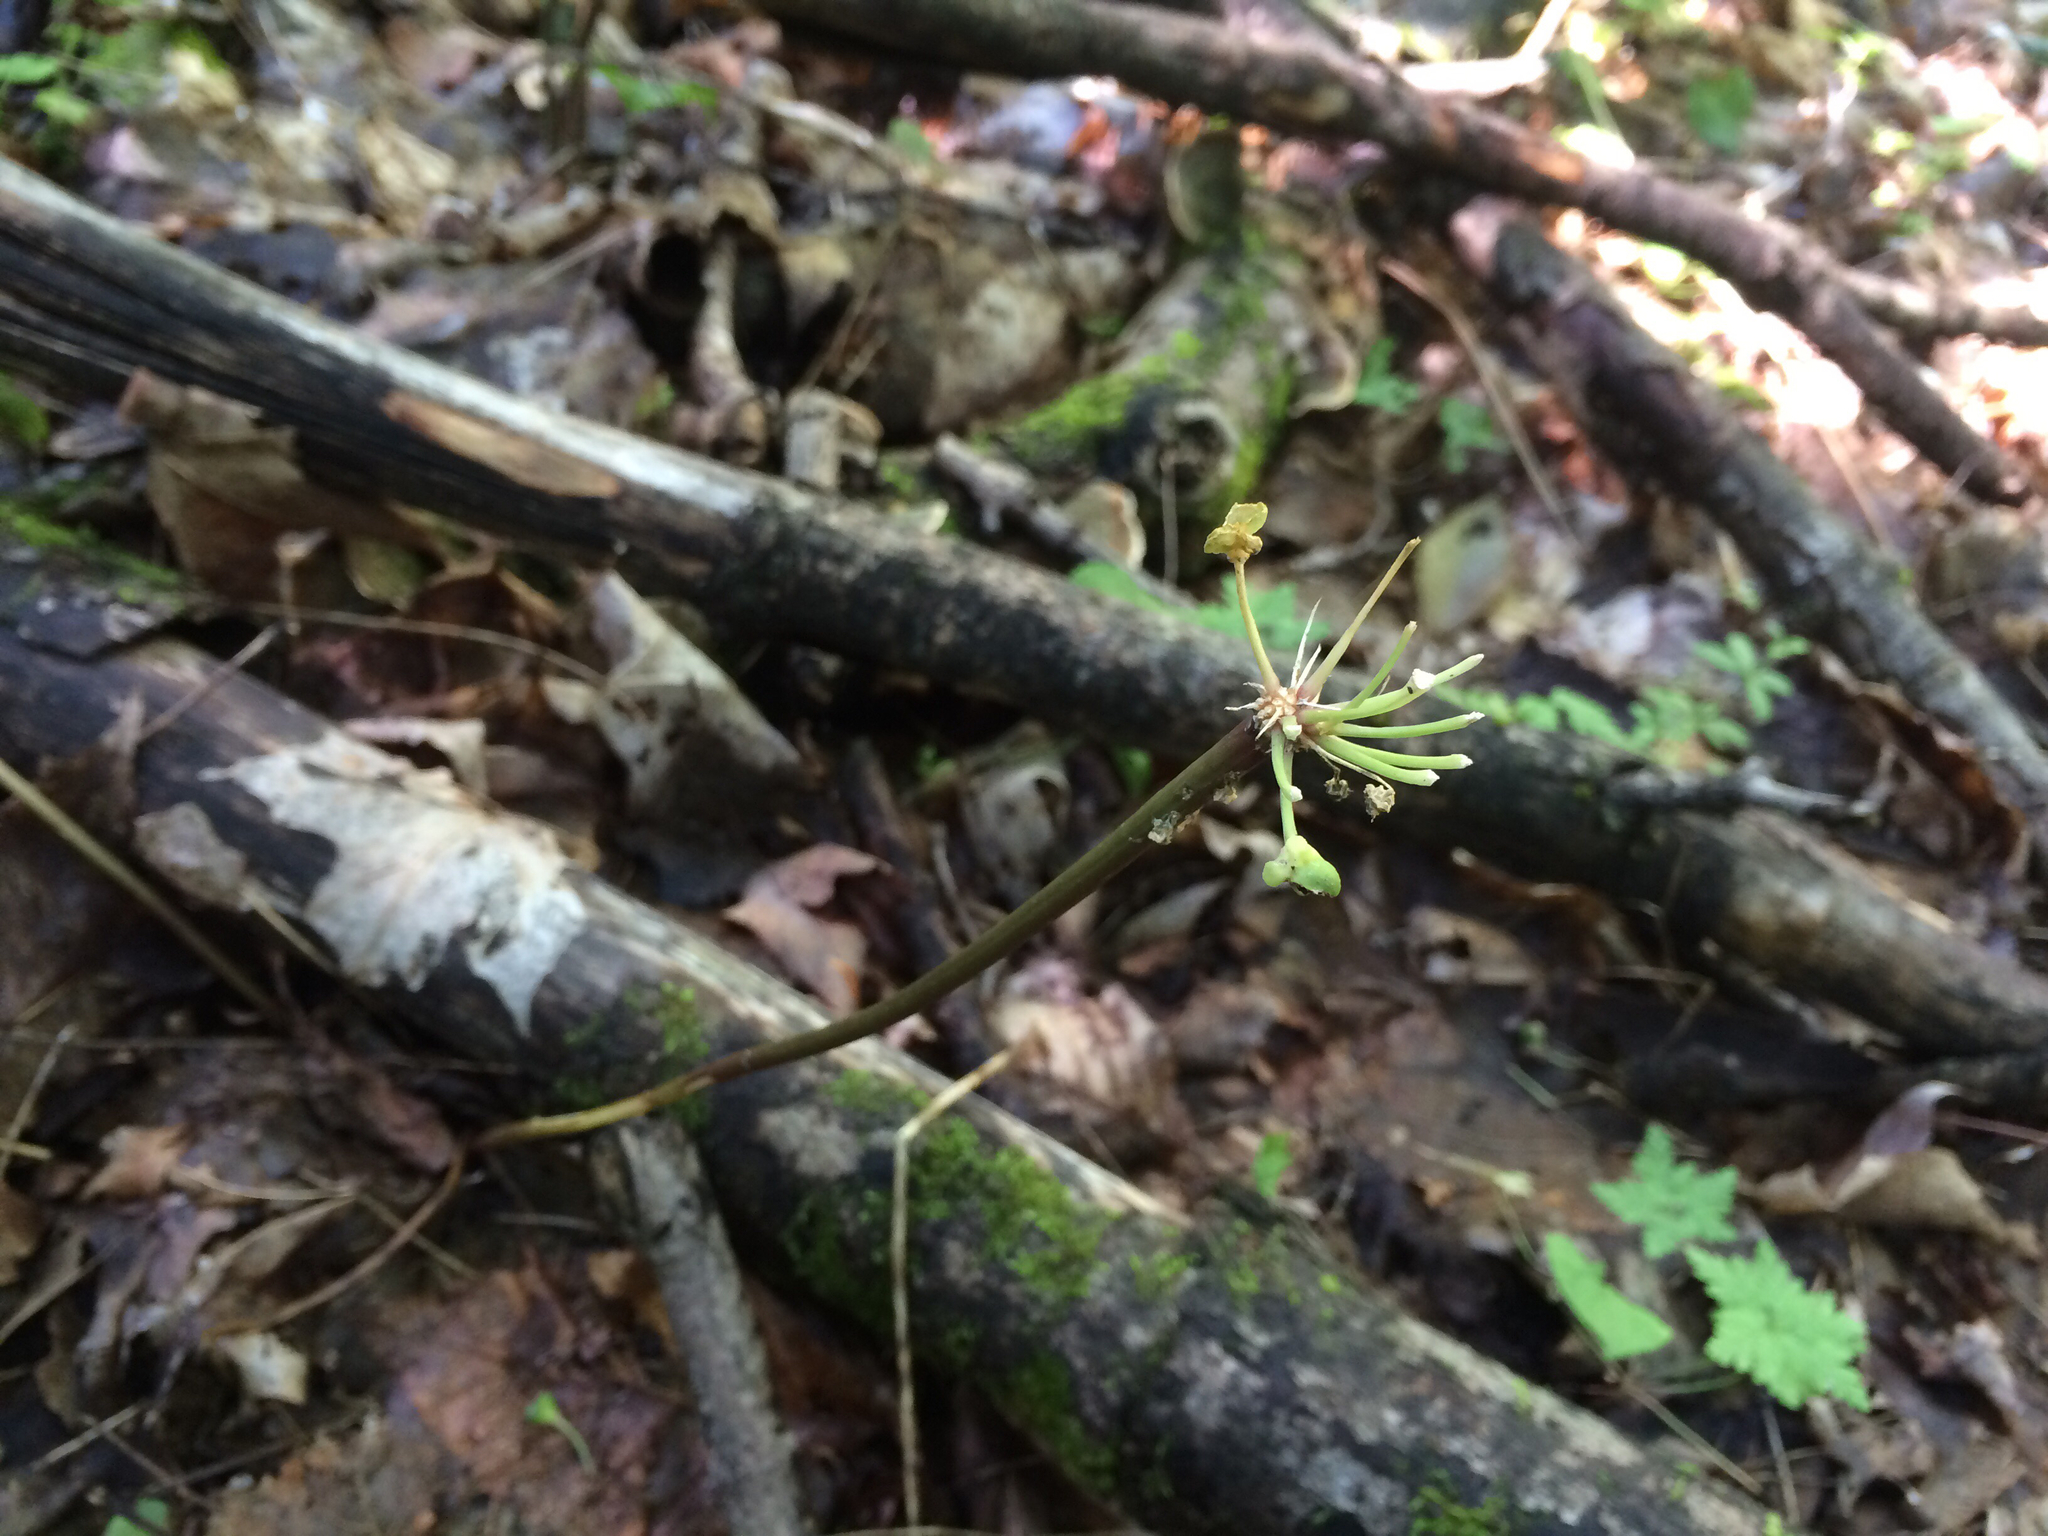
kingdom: Plantae
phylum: Tracheophyta
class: Liliopsida
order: Asparagales
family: Amaryllidaceae
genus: Allium
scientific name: Allium tricoccum
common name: Ramp
